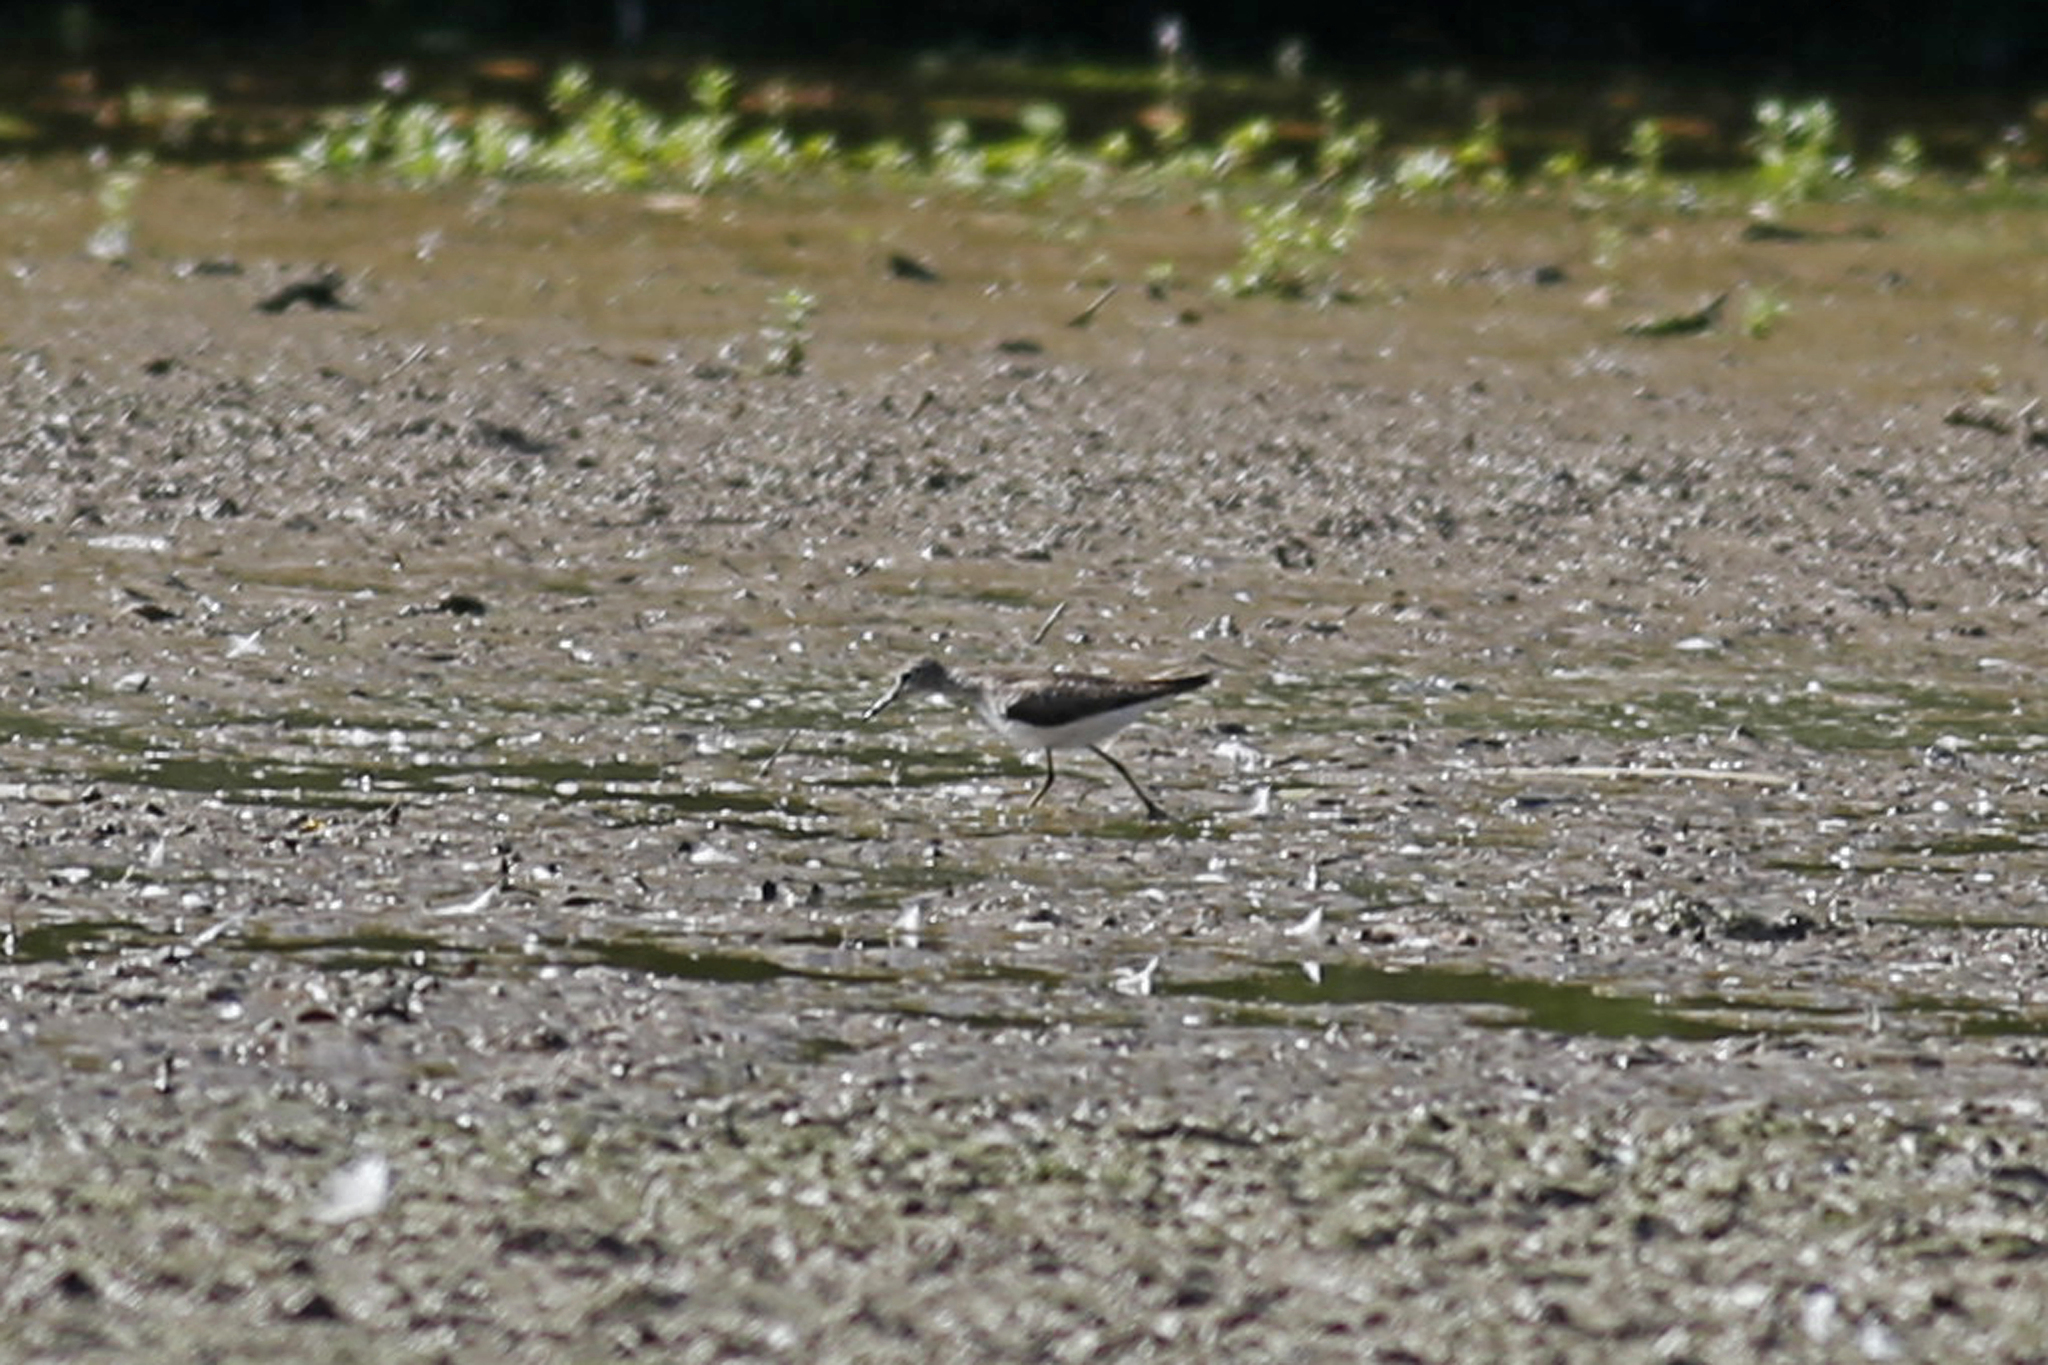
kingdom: Animalia
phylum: Chordata
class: Aves
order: Charadriiformes
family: Scolopacidae
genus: Tringa
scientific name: Tringa solitaria
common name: Solitary sandpiper
